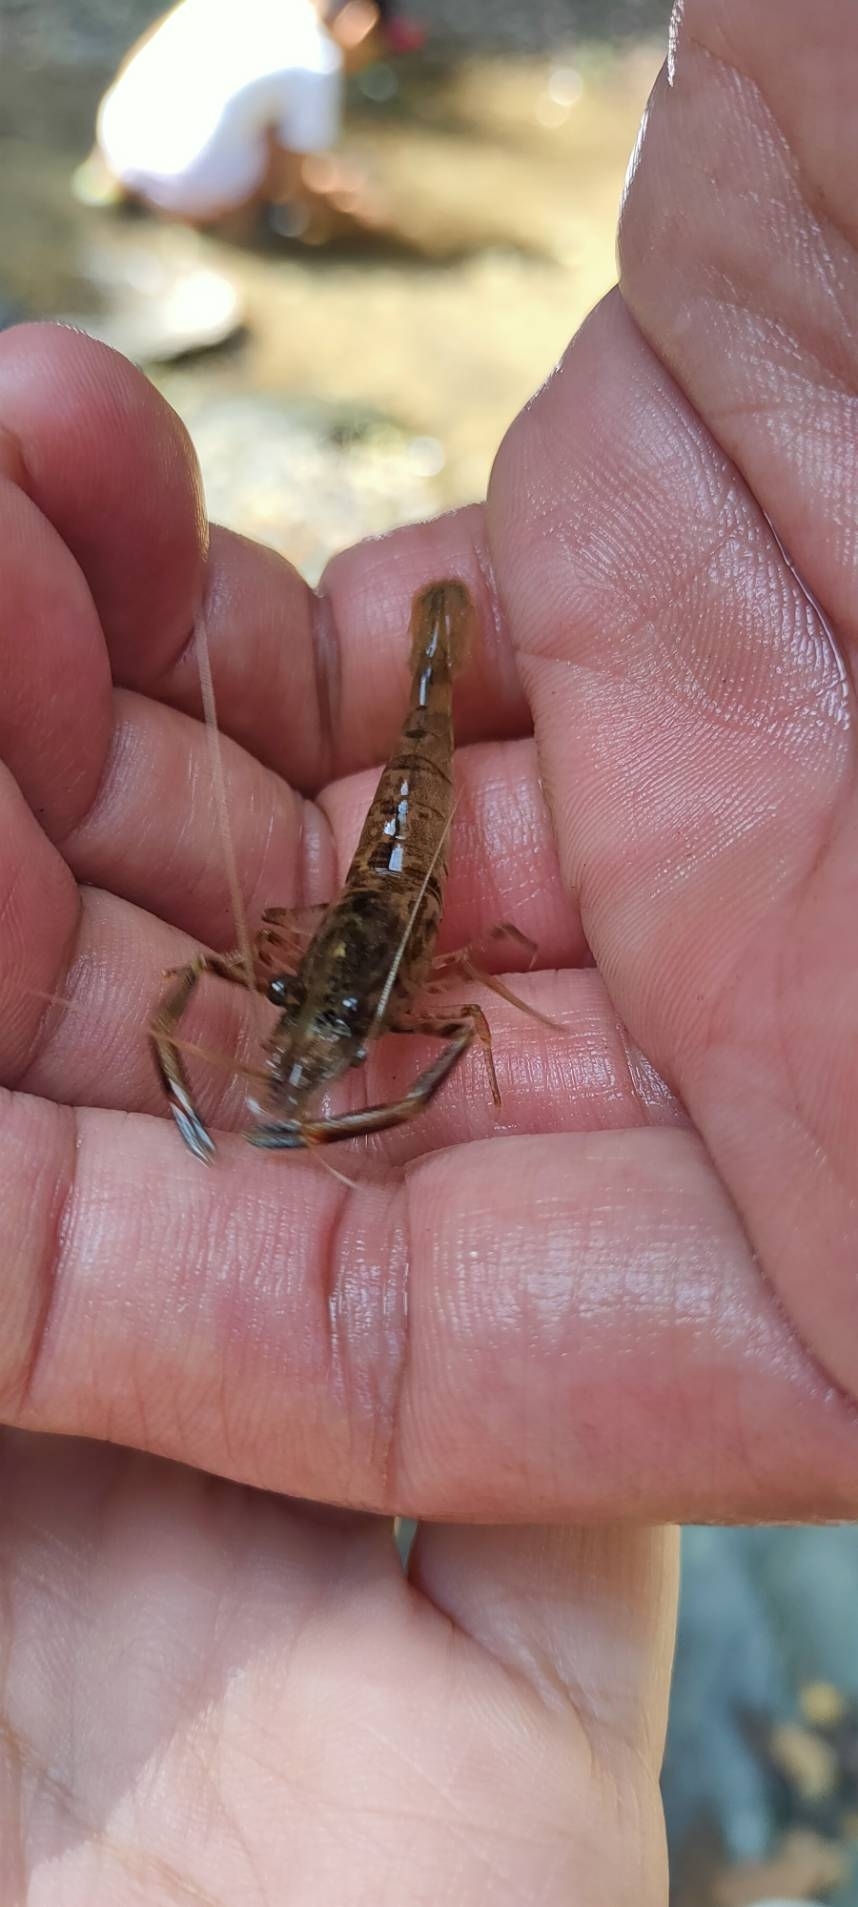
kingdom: Animalia
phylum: Arthropoda
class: Malacostraca
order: Decapoda
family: Palaemonidae
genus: Macrobrachium
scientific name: Macrobrachium asperulum
